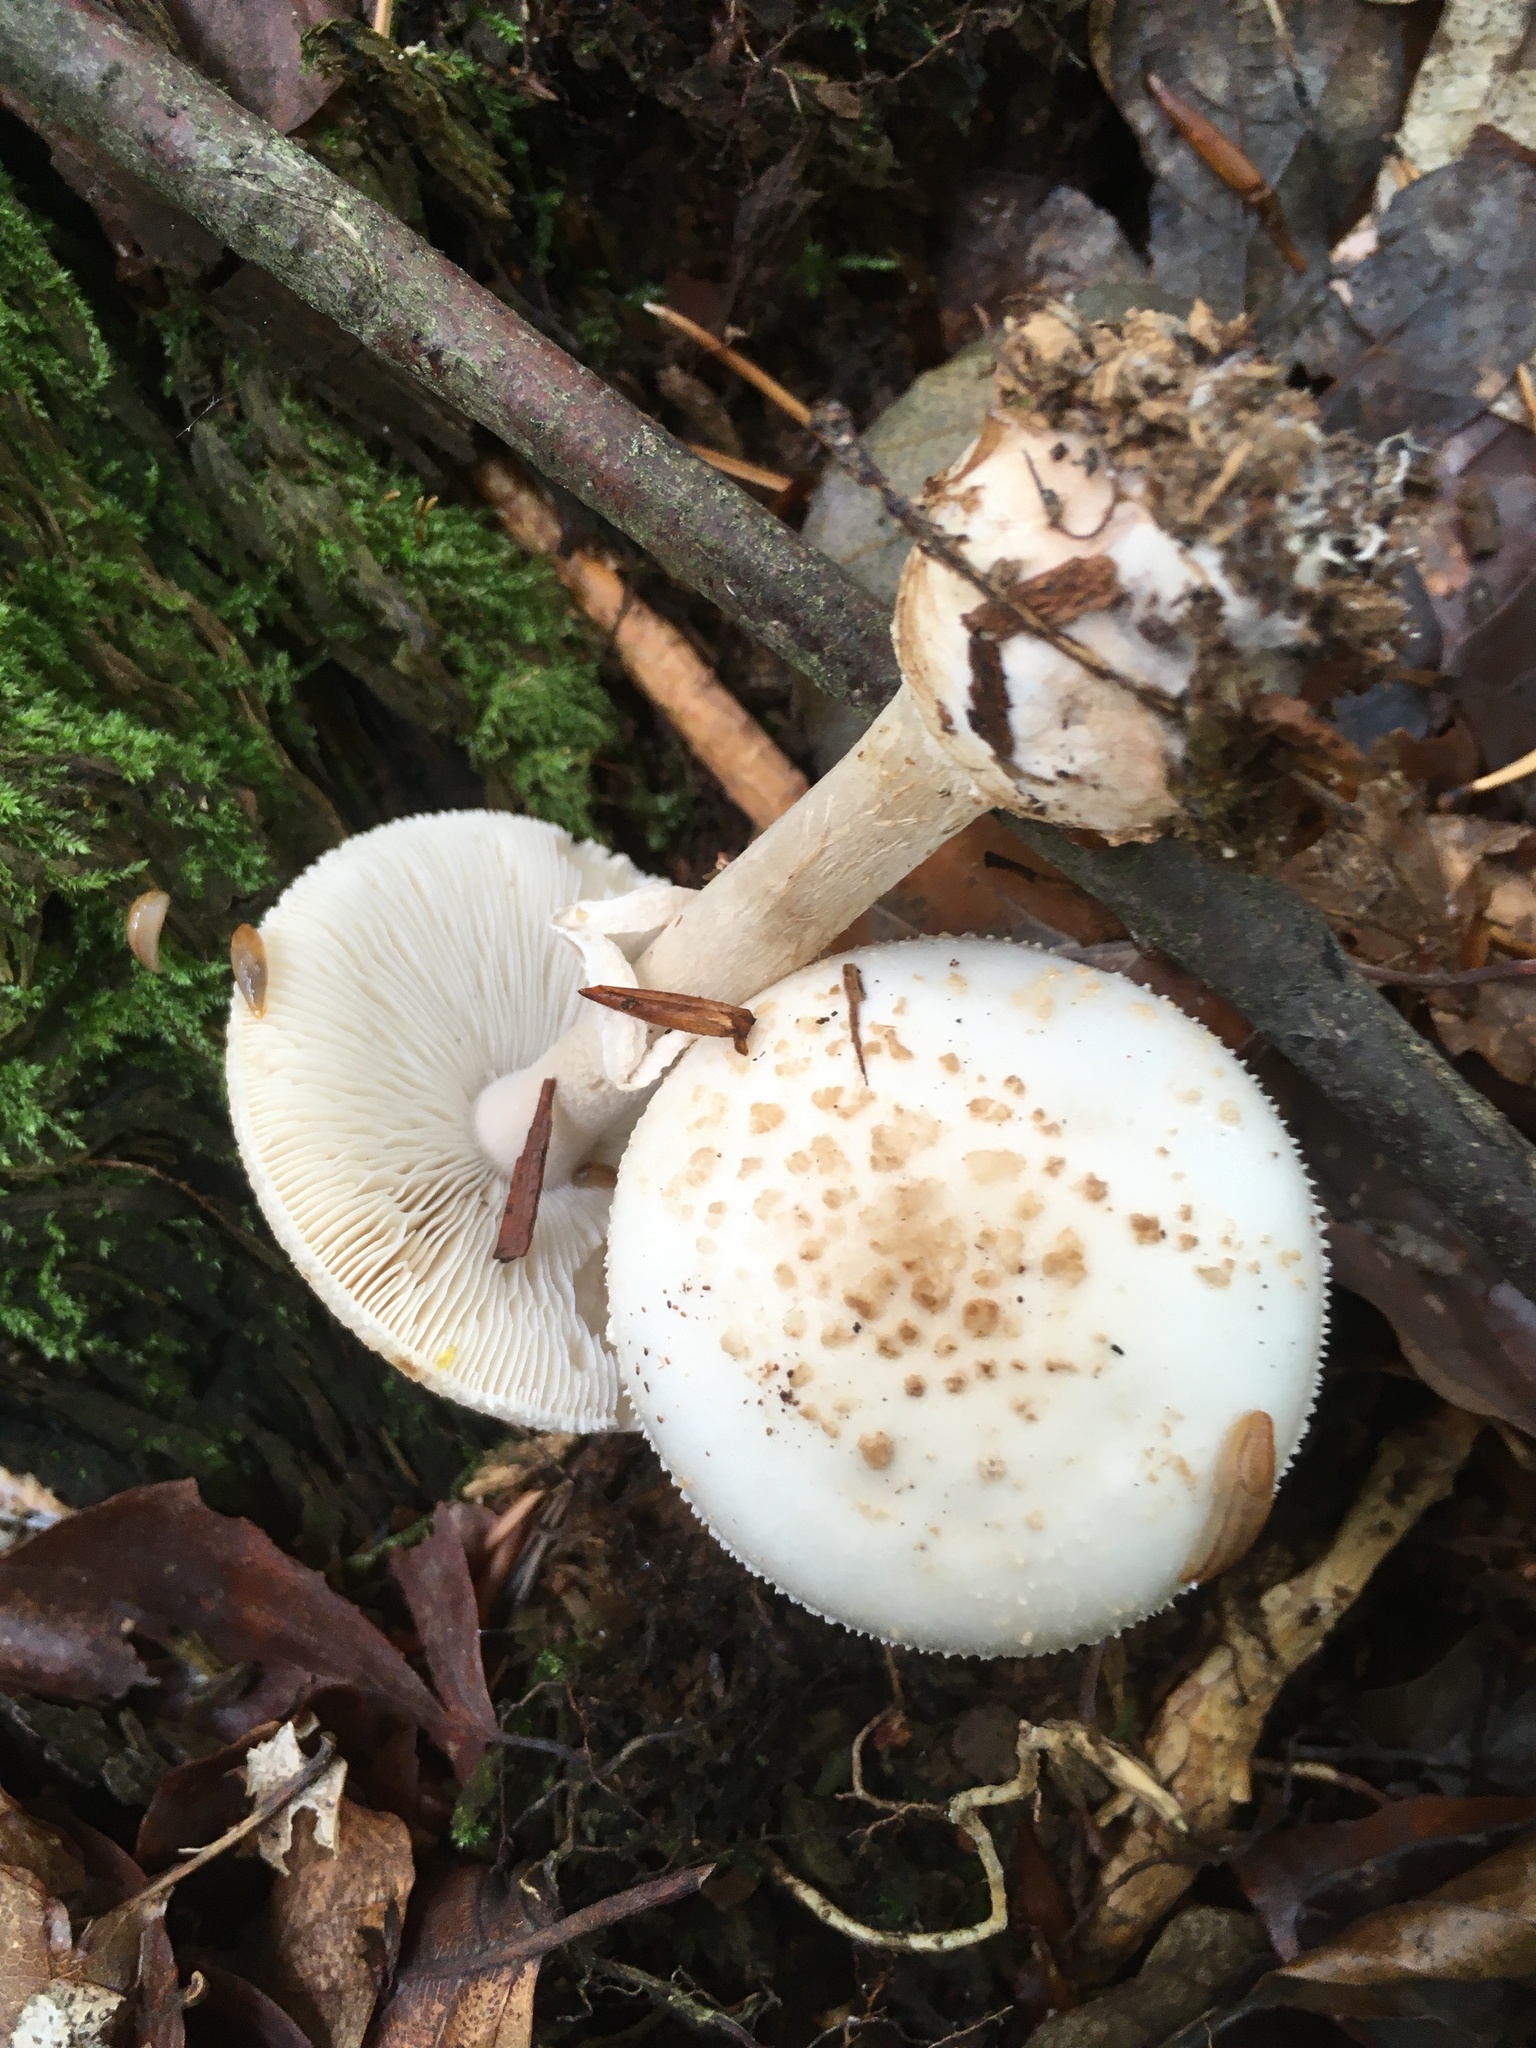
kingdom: Fungi
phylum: Basidiomycota
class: Agaricomycetes
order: Agaricales
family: Amanitaceae
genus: Amanita
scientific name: Amanita citrina
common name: False death-cap
